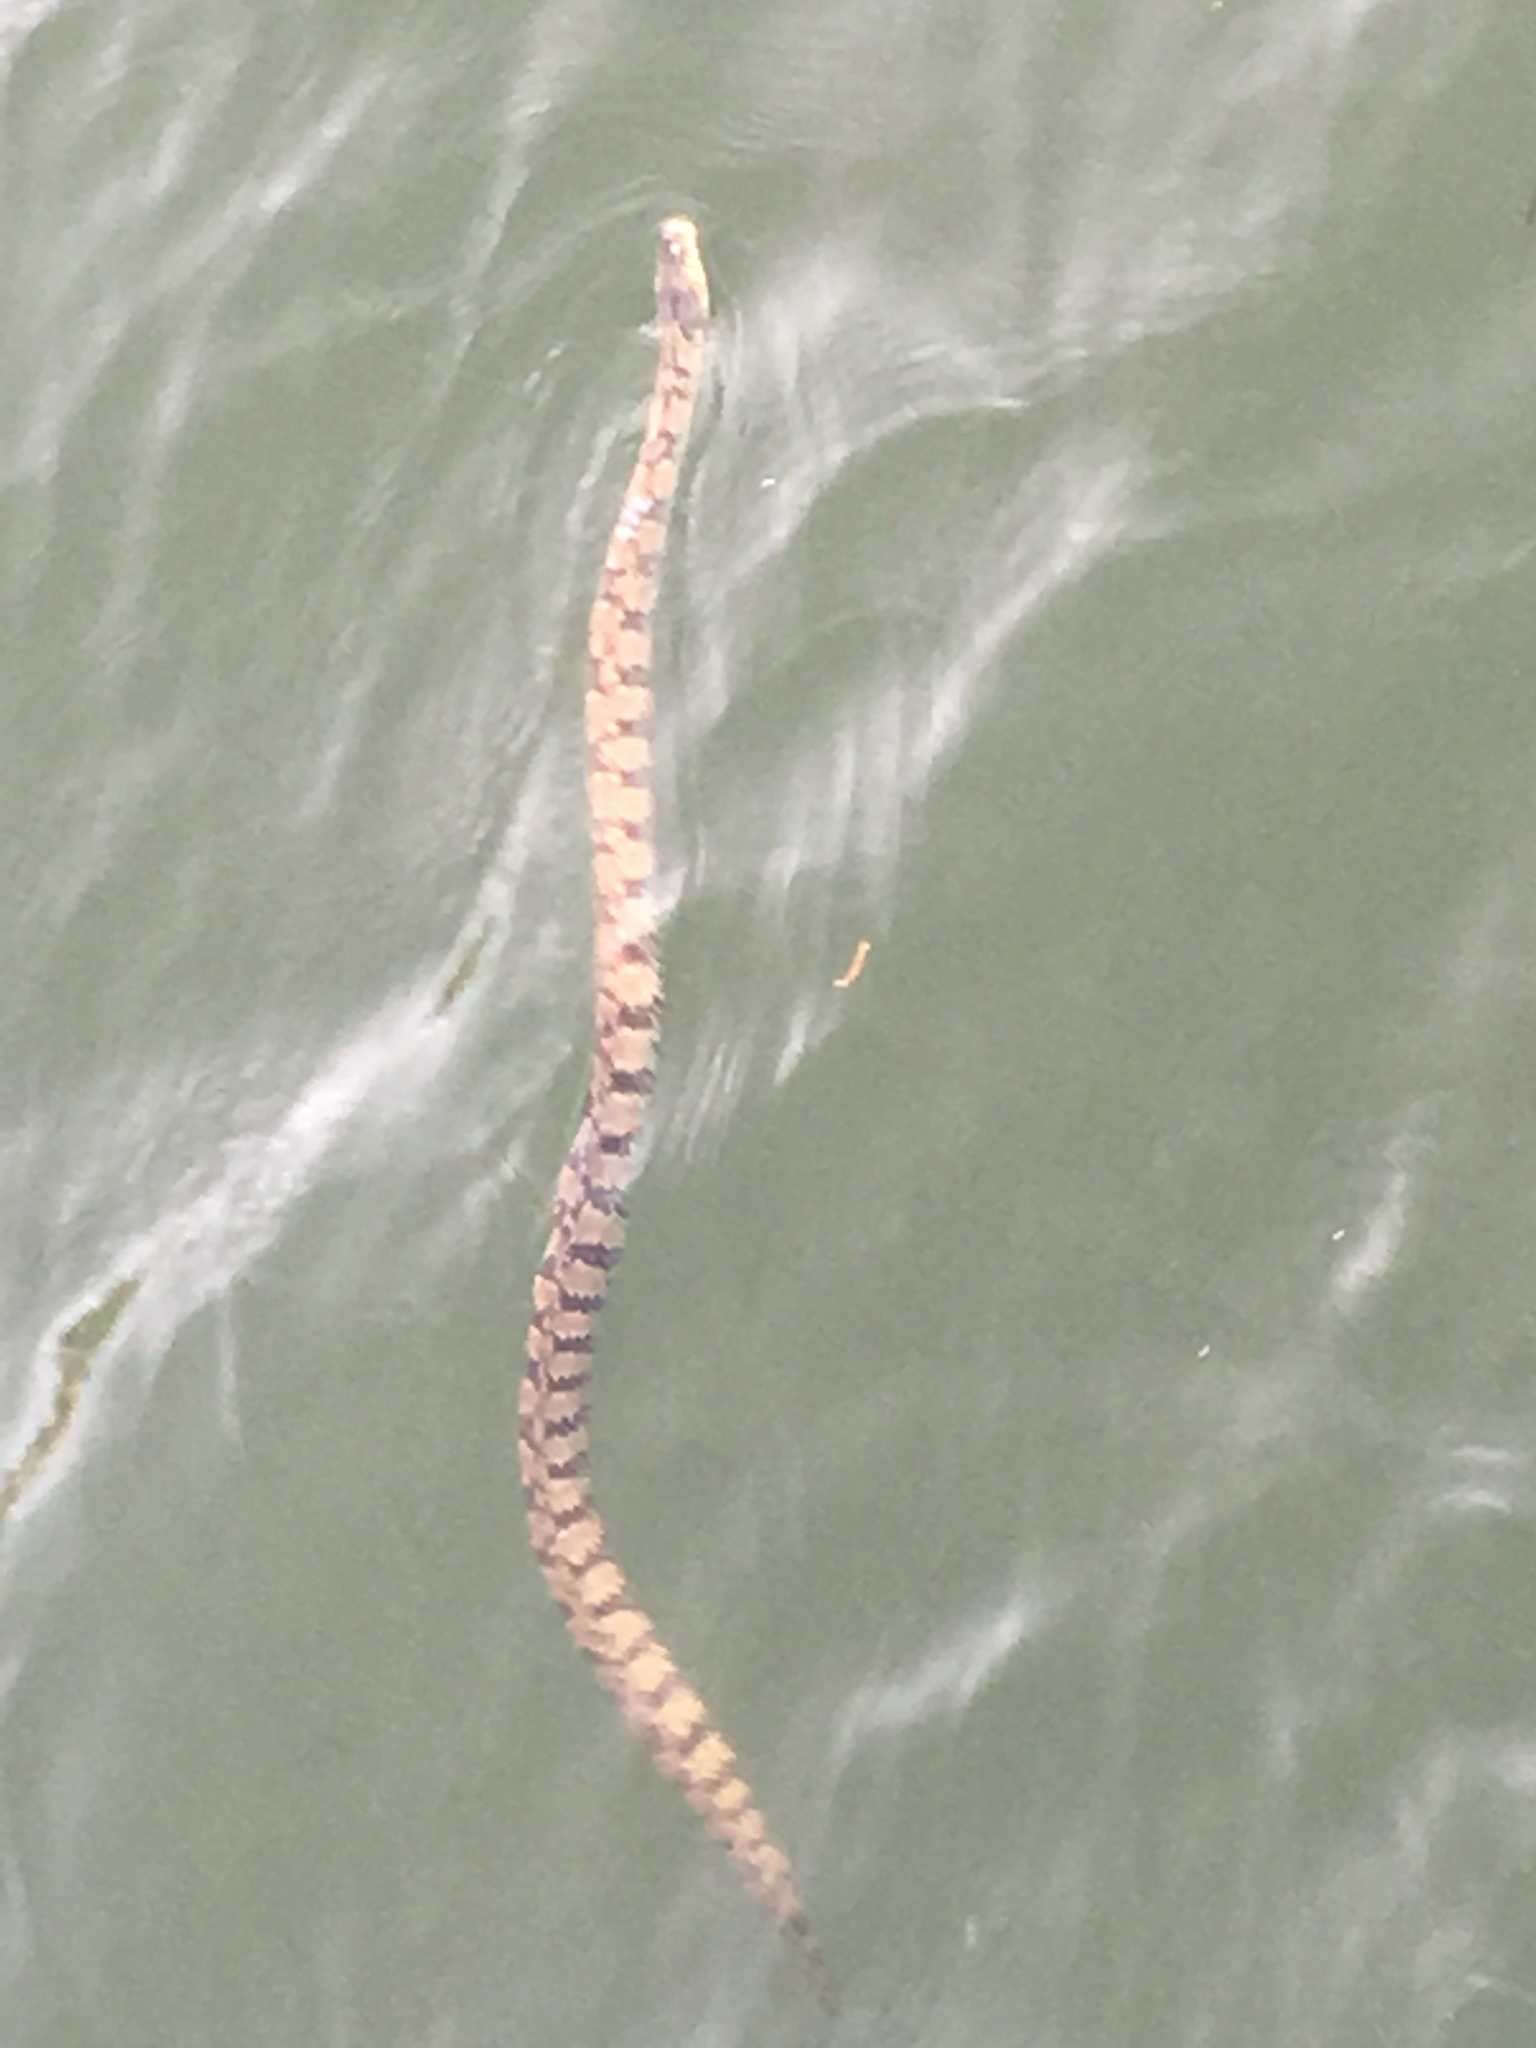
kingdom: Animalia
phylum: Chordata
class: Squamata
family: Colubridae
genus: Nerodia
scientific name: Nerodia rhombifer
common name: Diamondback water snake
